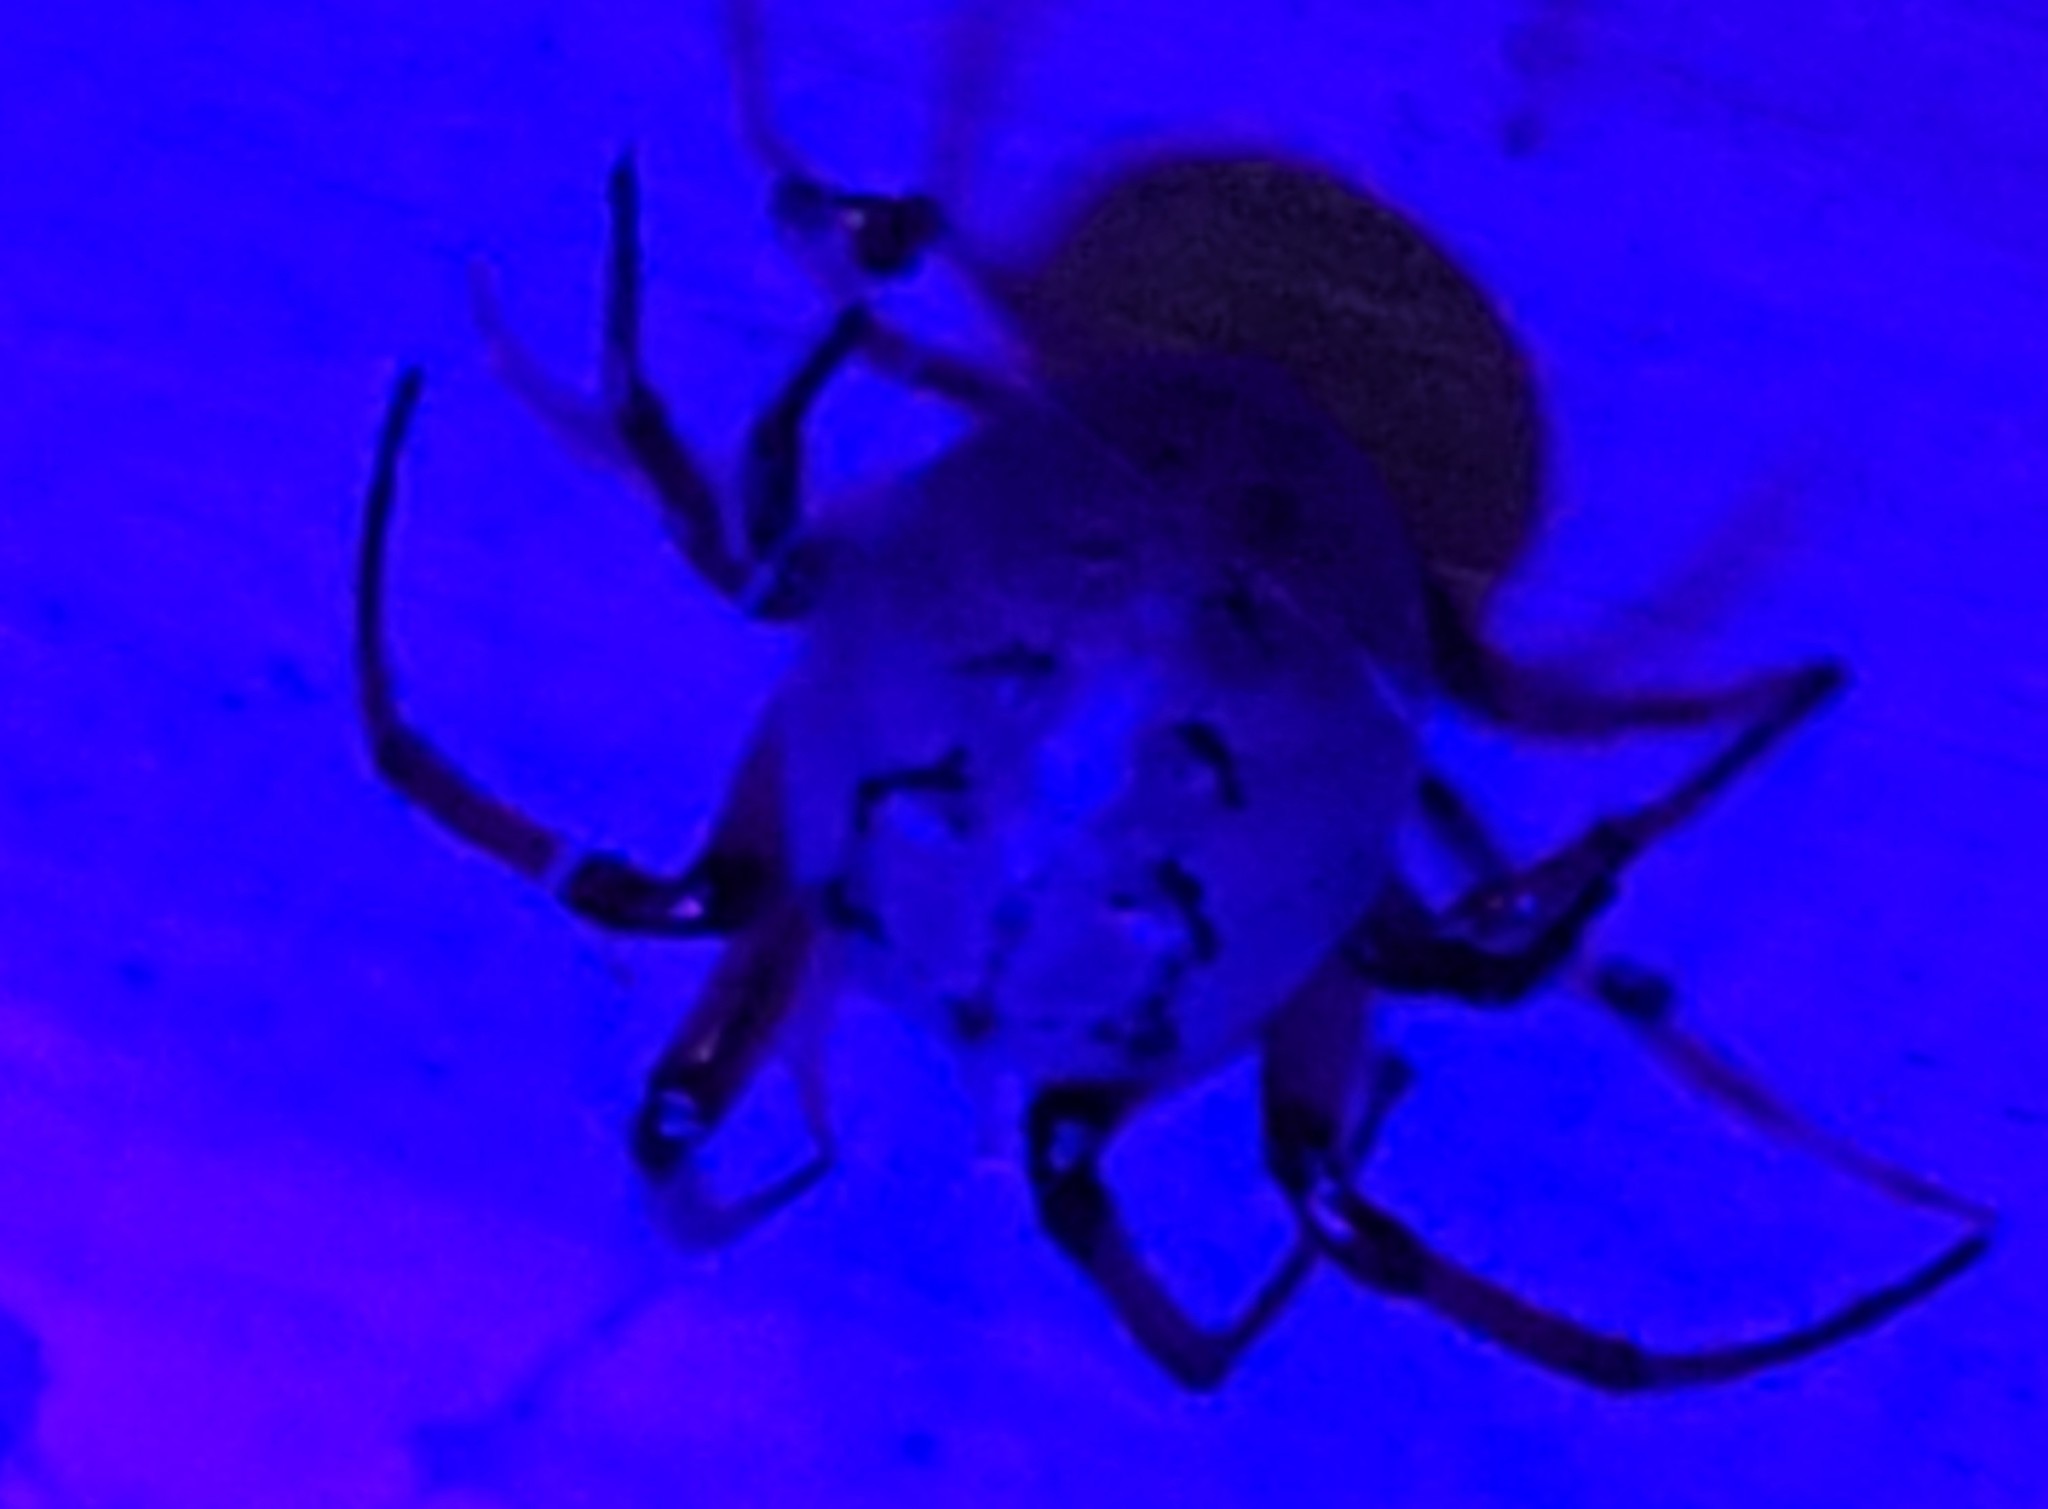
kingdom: Animalia
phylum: Arthropoda
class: Arachnida
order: Araneae
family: Araneidae
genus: Metazygia
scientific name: Metazygia wittfeldae
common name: Orb weavers
